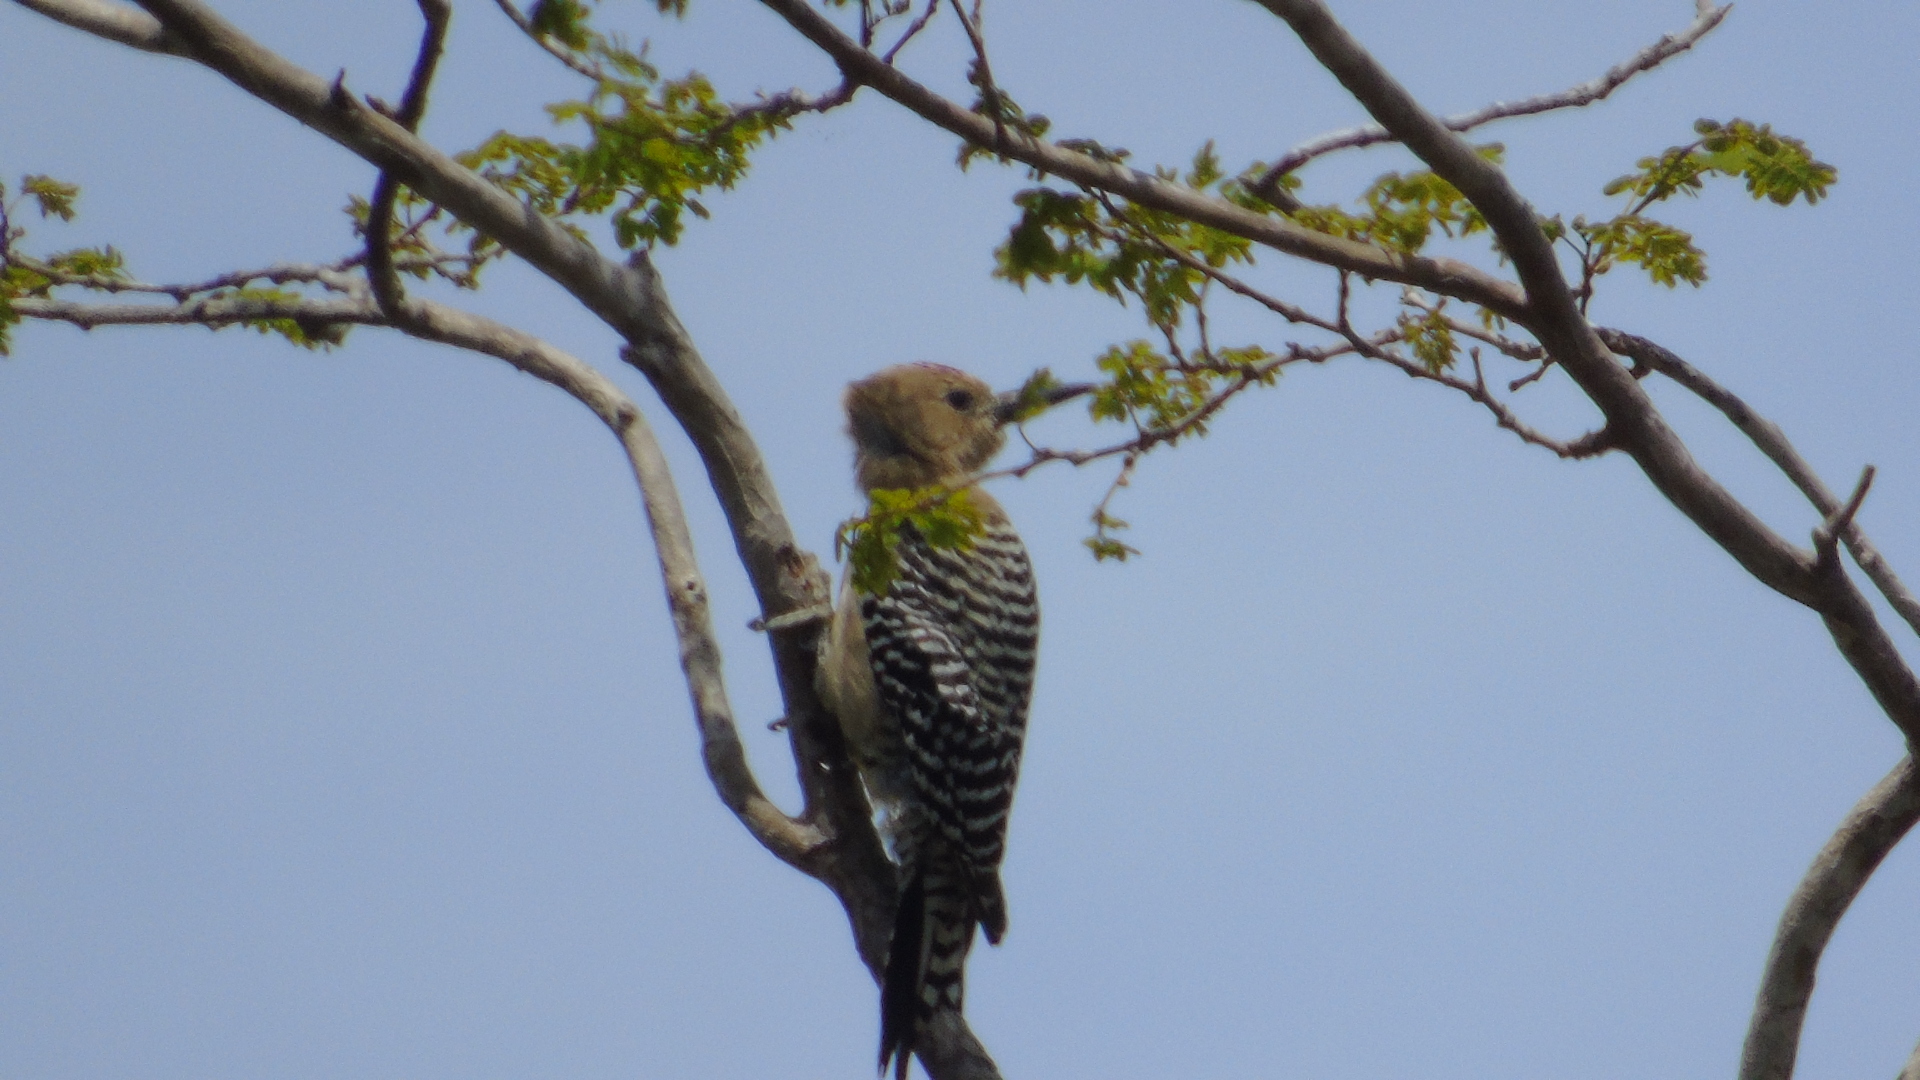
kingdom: Animalia
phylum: Chordata
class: Aves
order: Piciformes
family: Picidae
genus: Melanerpes
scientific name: Melanerpes uropygialis
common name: Gila woodpecker
